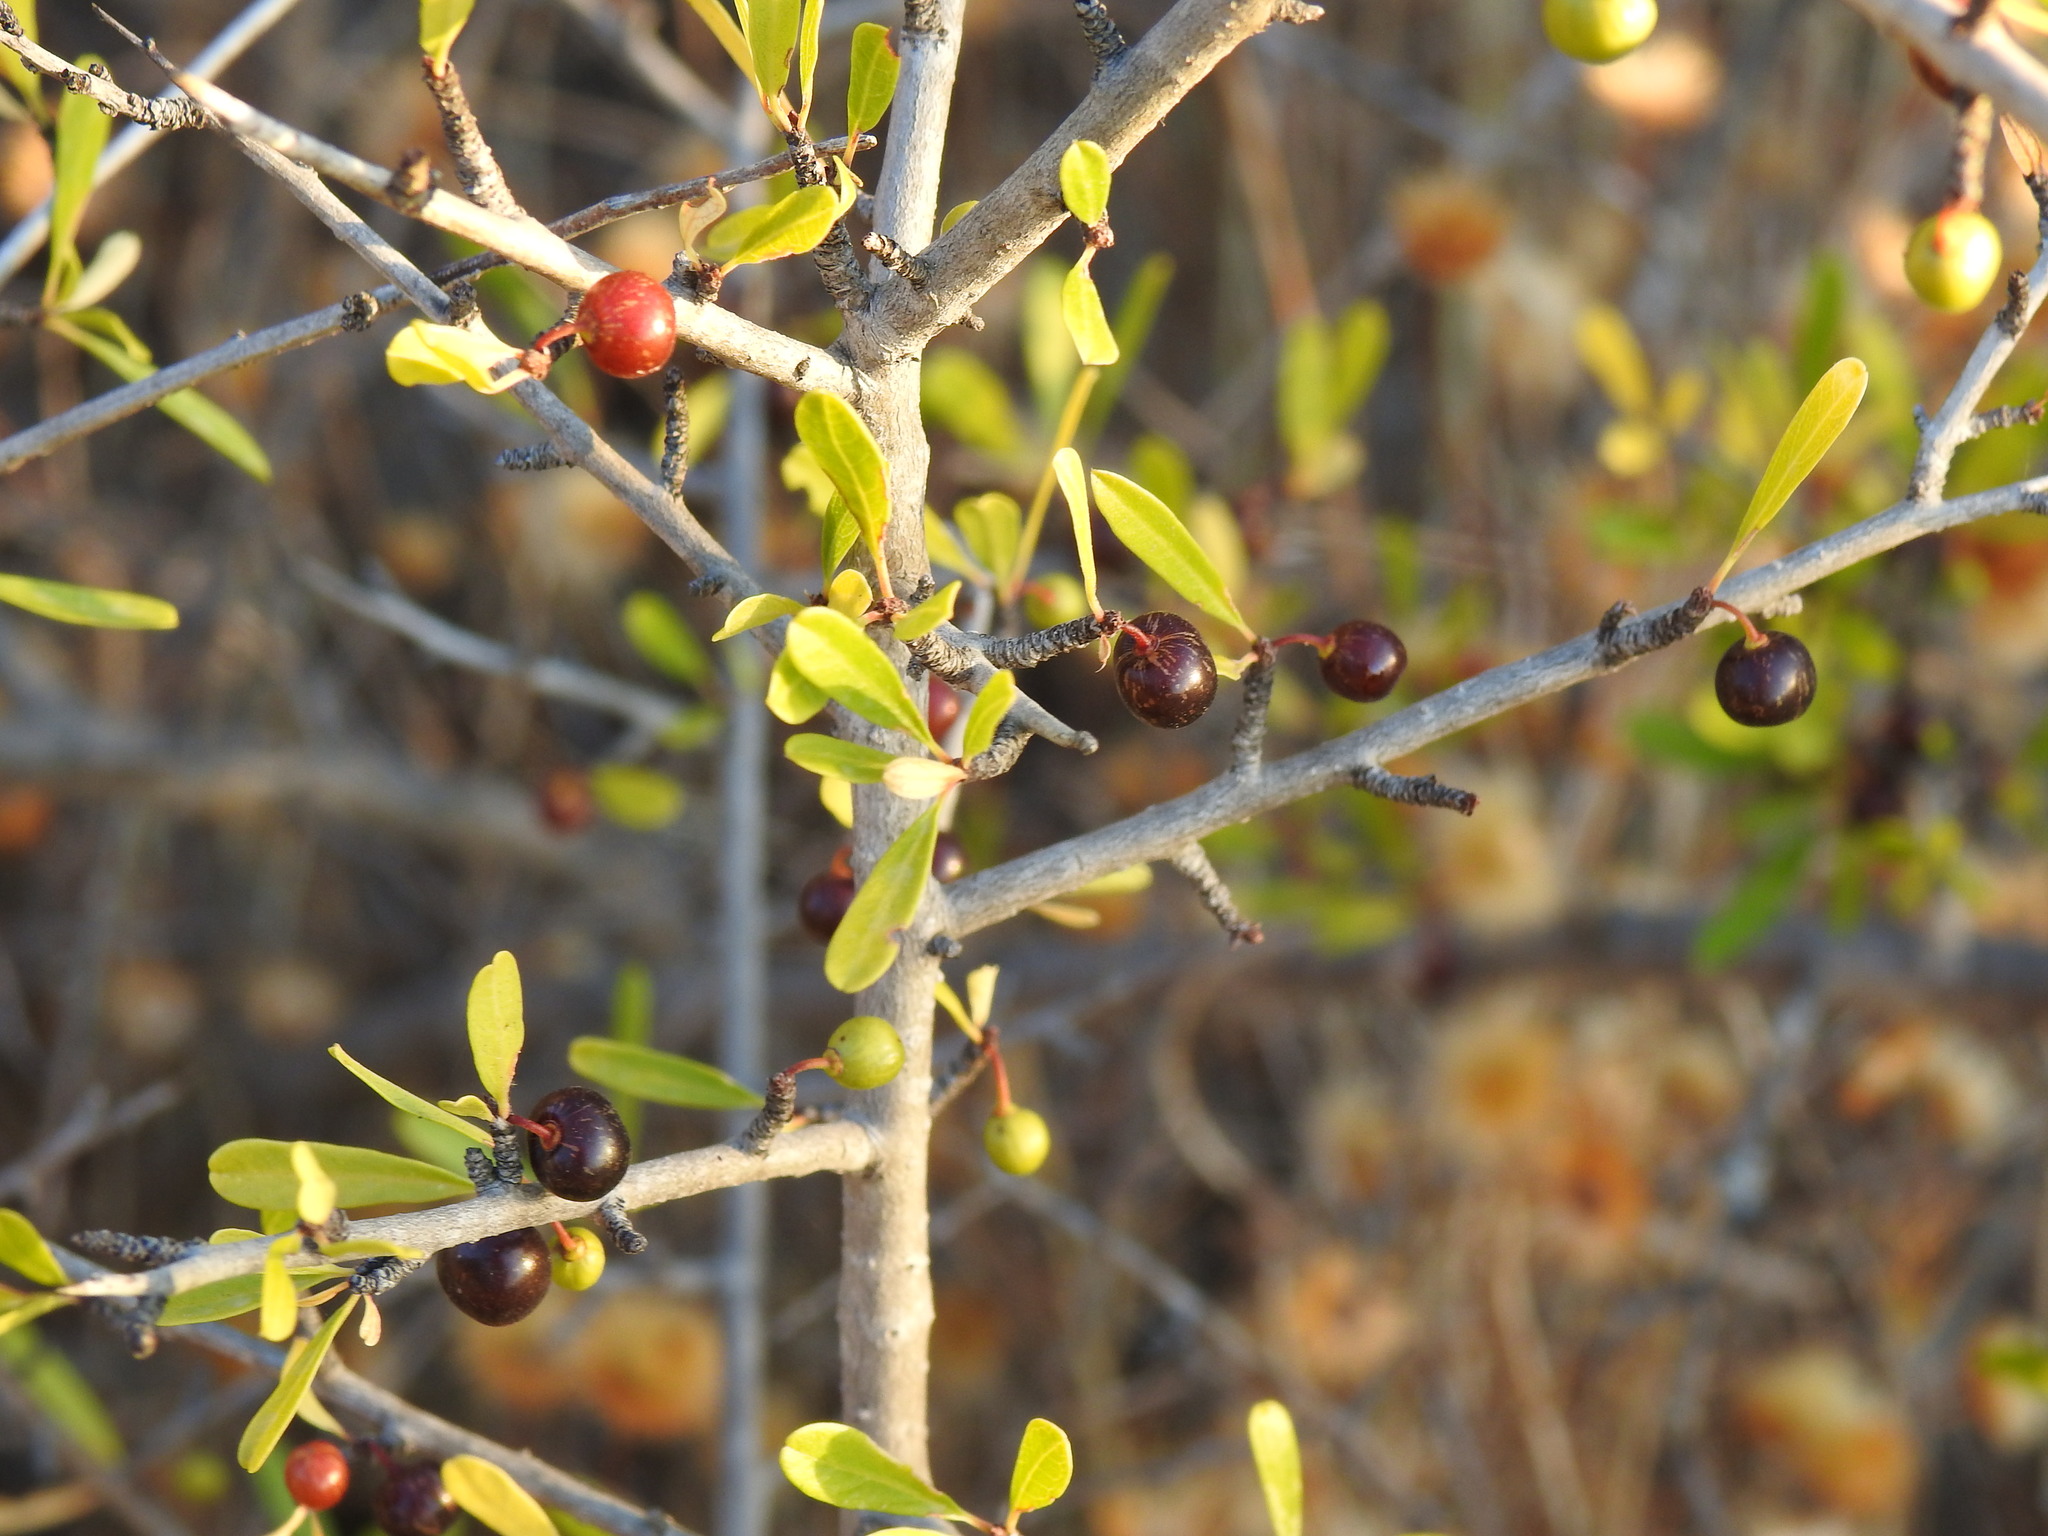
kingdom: Plantae
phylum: Tracheophyta
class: Magnoliopsida
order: Rosales
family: Rhamnaceae
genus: Rhamnus
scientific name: Rhamnus oleoides
